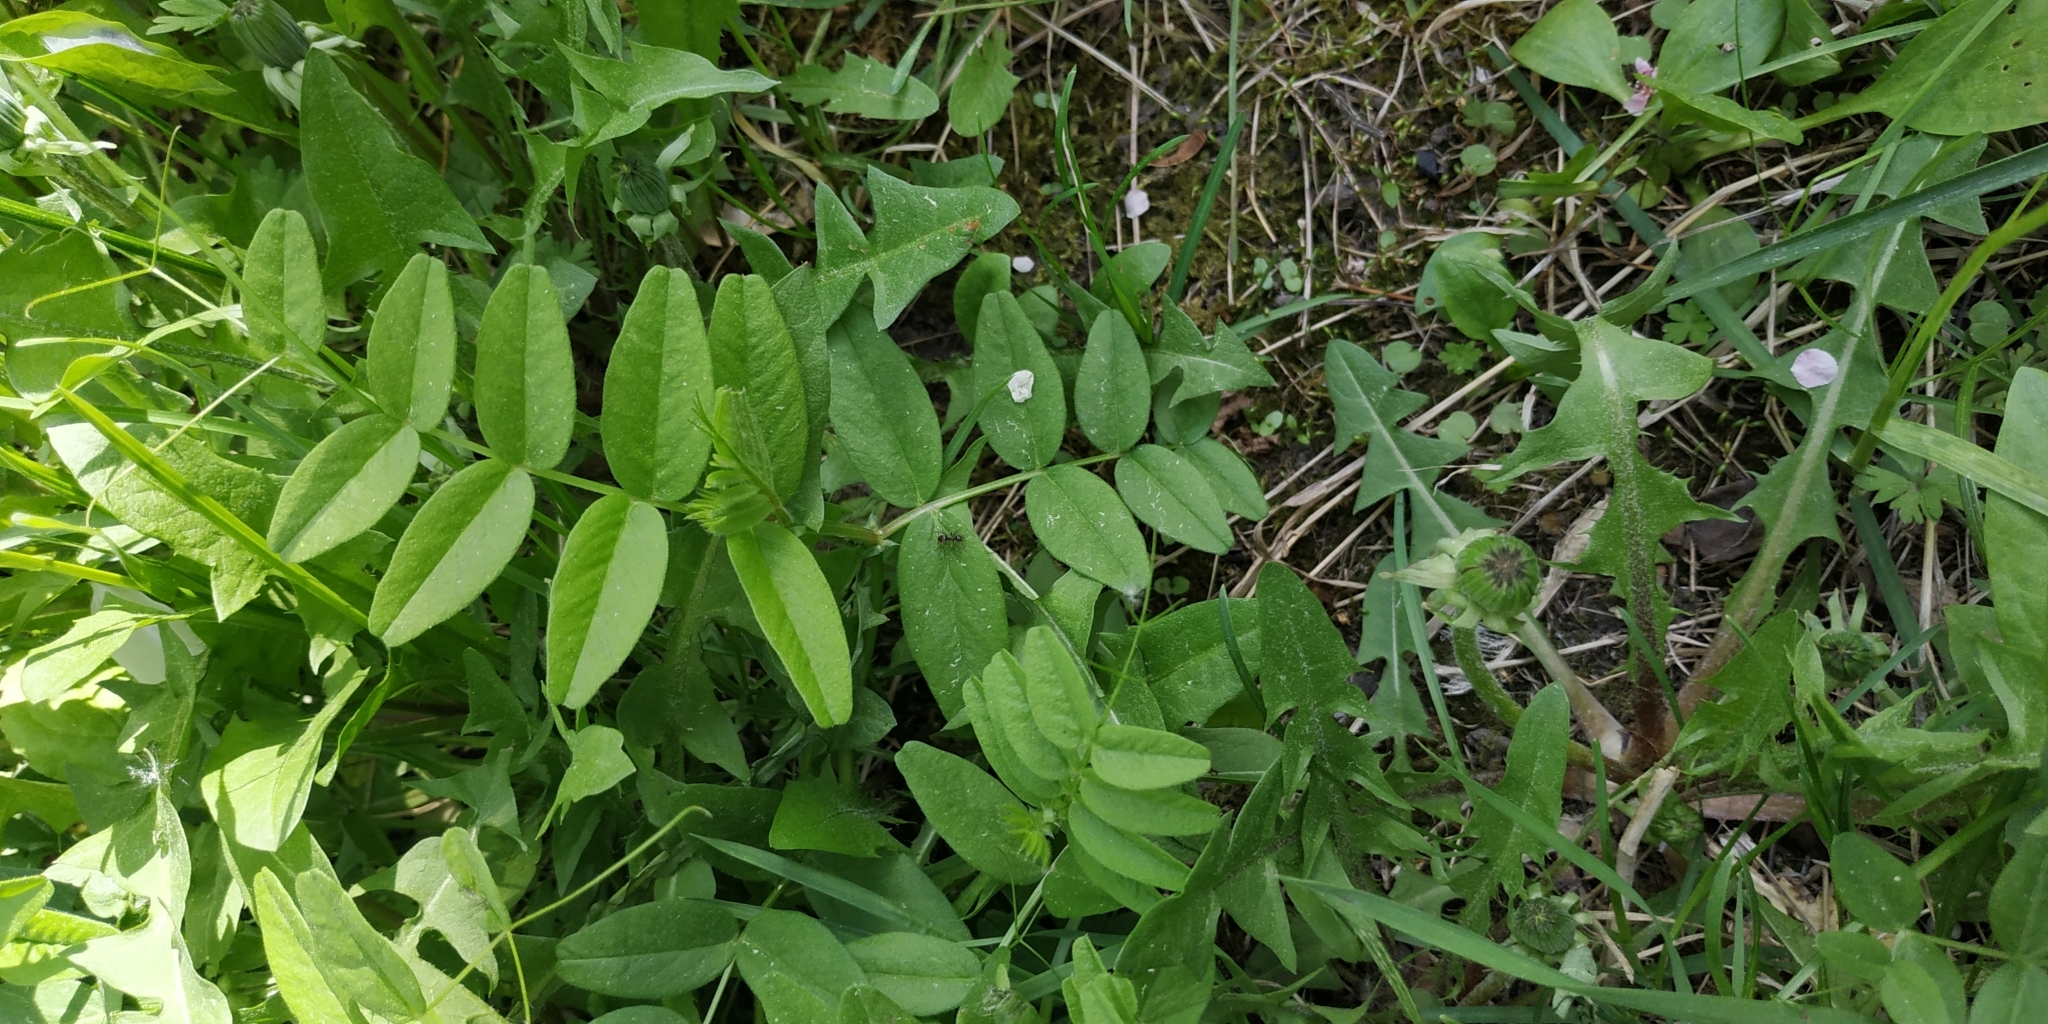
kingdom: Plantae
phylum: Tracheophyta
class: Magnoliopsida
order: Fabales
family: Fabaceae
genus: Vicia
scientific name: Vicia sepium
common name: Bush vetch
